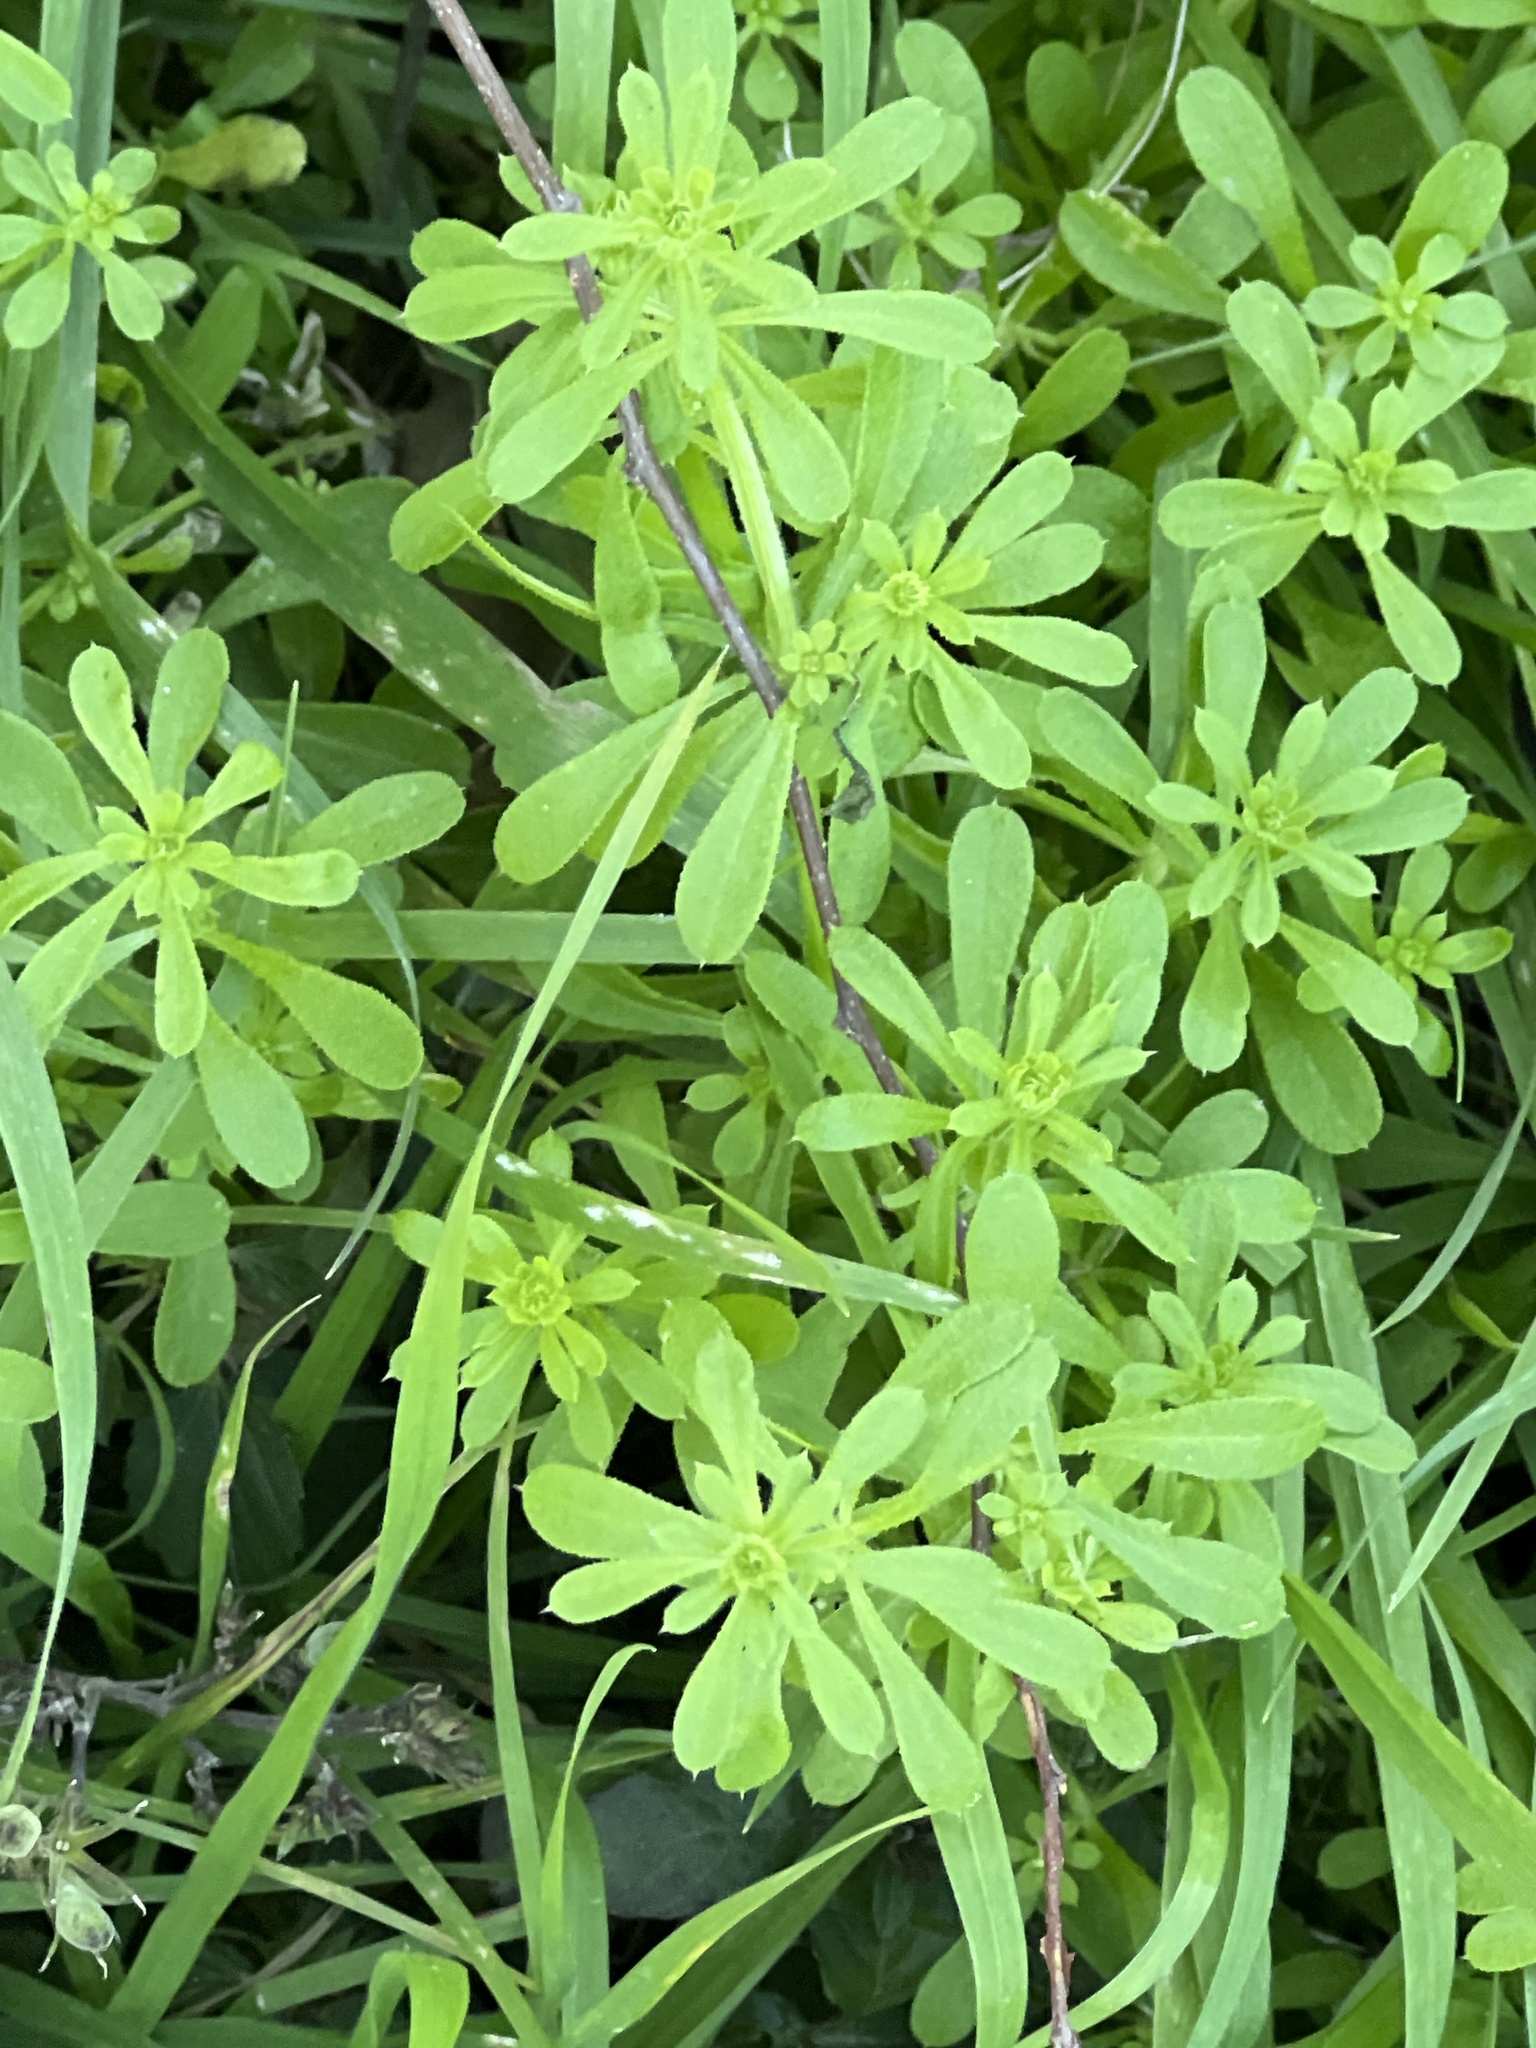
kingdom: Plantae
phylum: Tracheophyta
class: Magnoliopsida
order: Gentianales
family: Rubiaceae
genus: Galium
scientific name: Galium aparine
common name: Cleavers
